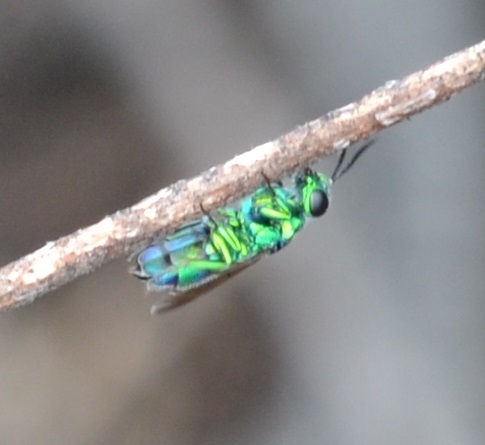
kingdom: Animalia
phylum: Arthropoda
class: Insecta
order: Hymenoptera
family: Chrysididae
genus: Chrysis
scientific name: Chrysis angolensis
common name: Cuckoo wasp
